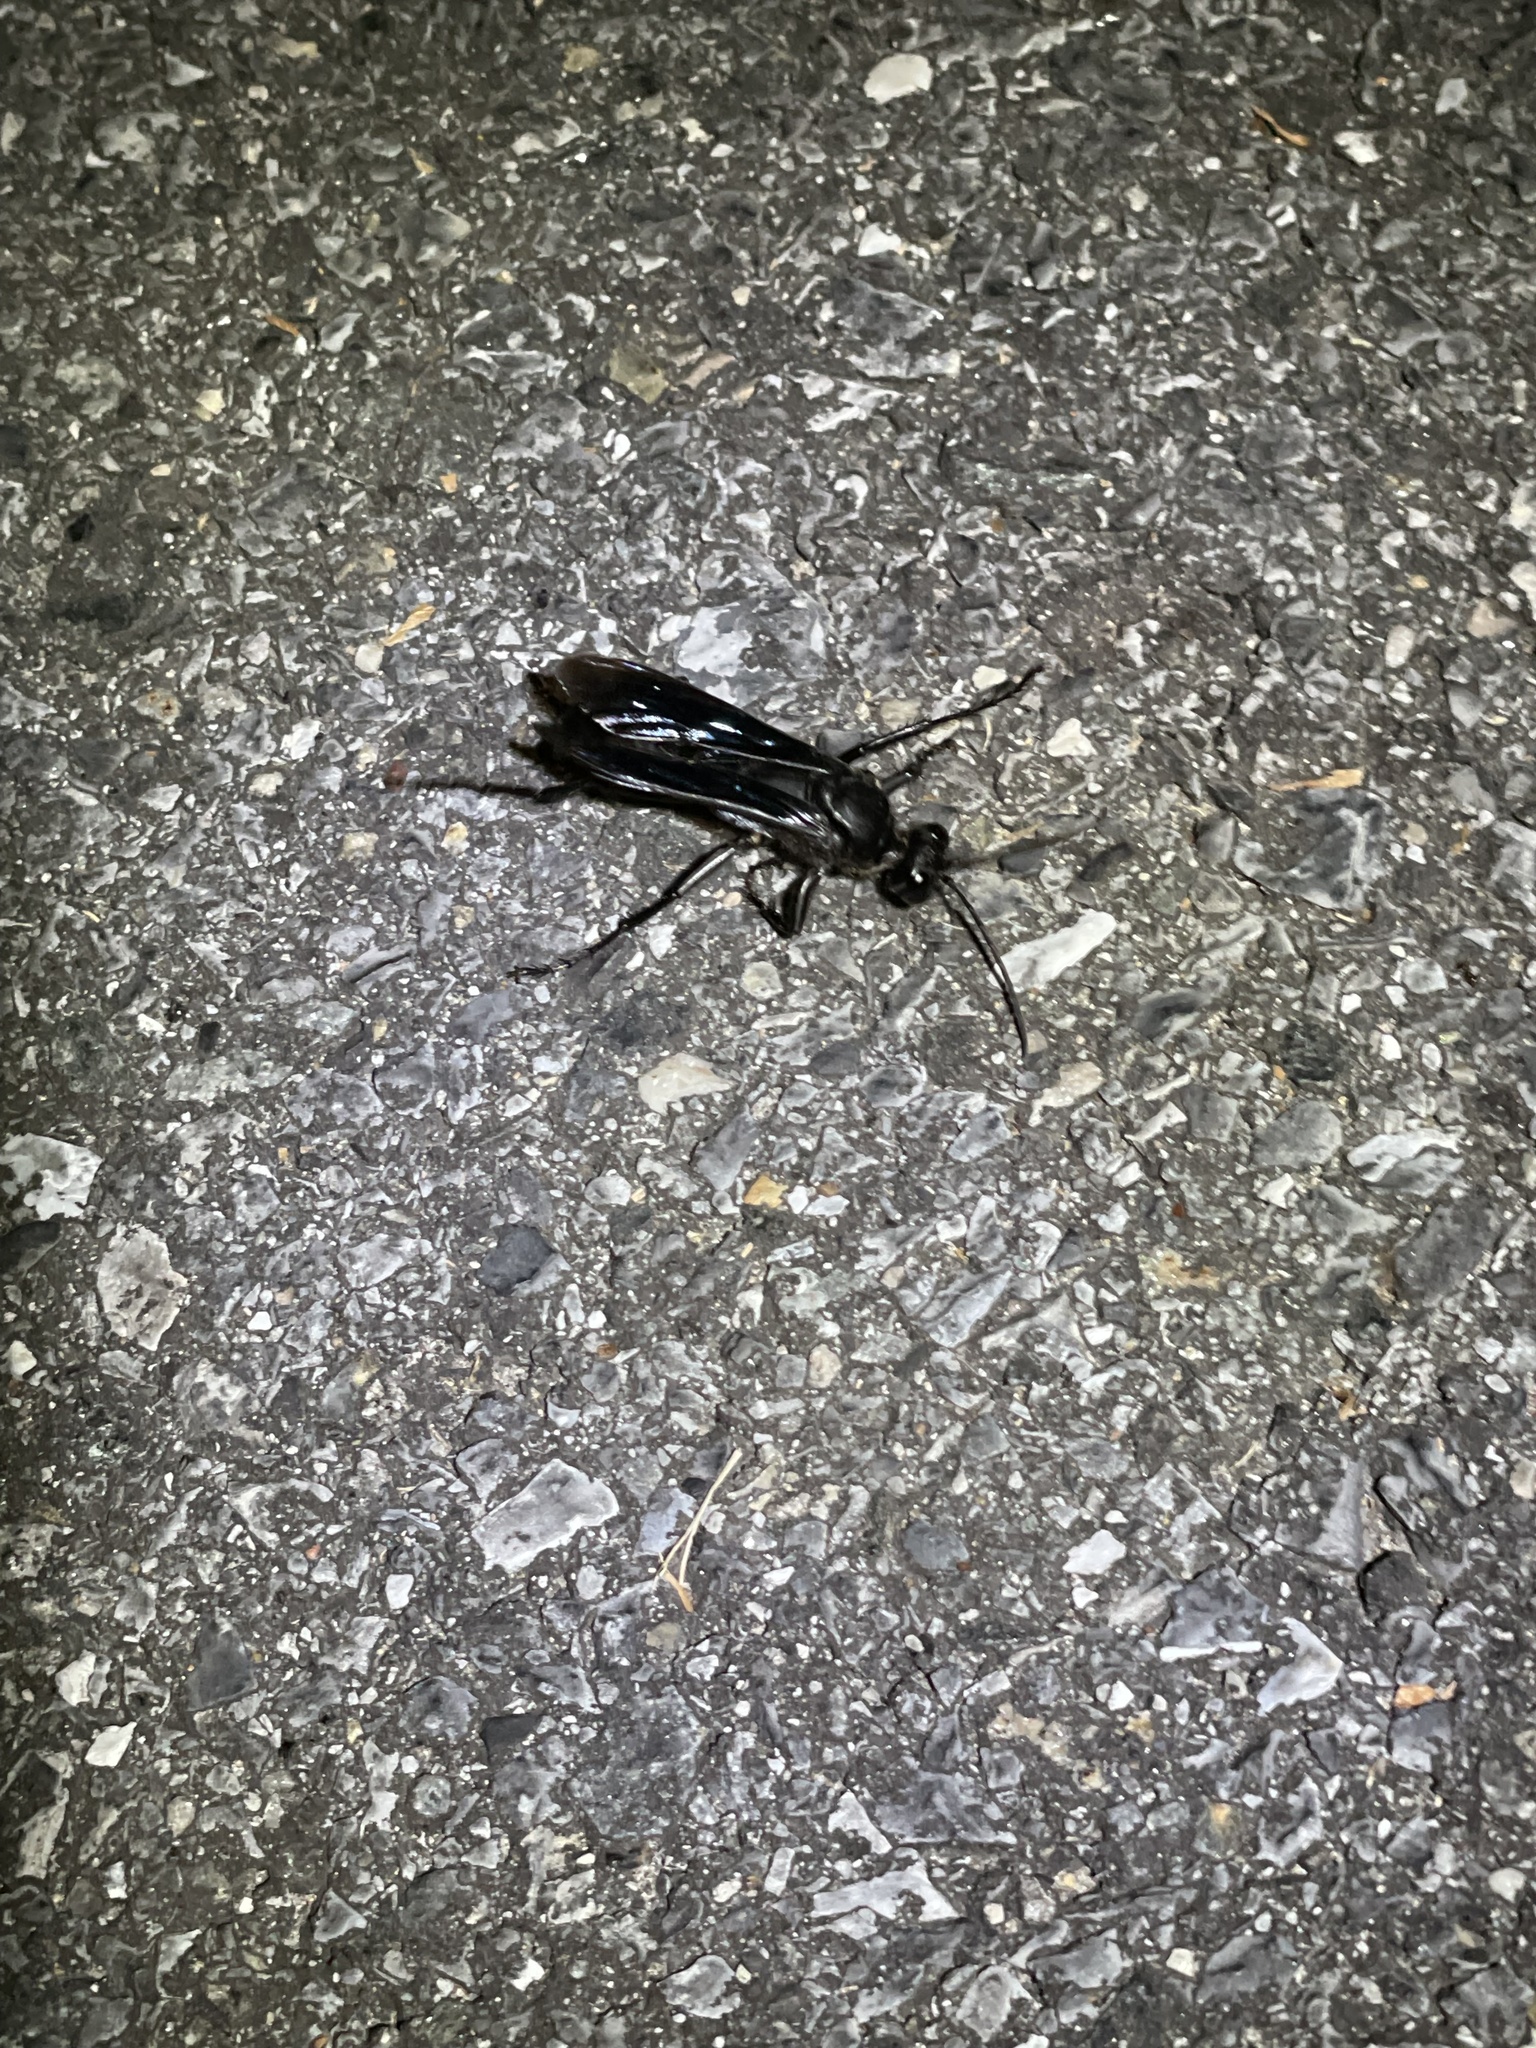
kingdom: Animalia
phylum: Arthropoda
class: Insecta
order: Hymenoptera
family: Sphecidae
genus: Sphex
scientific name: Sphex pensylvanicus
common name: Great black digger wasp
